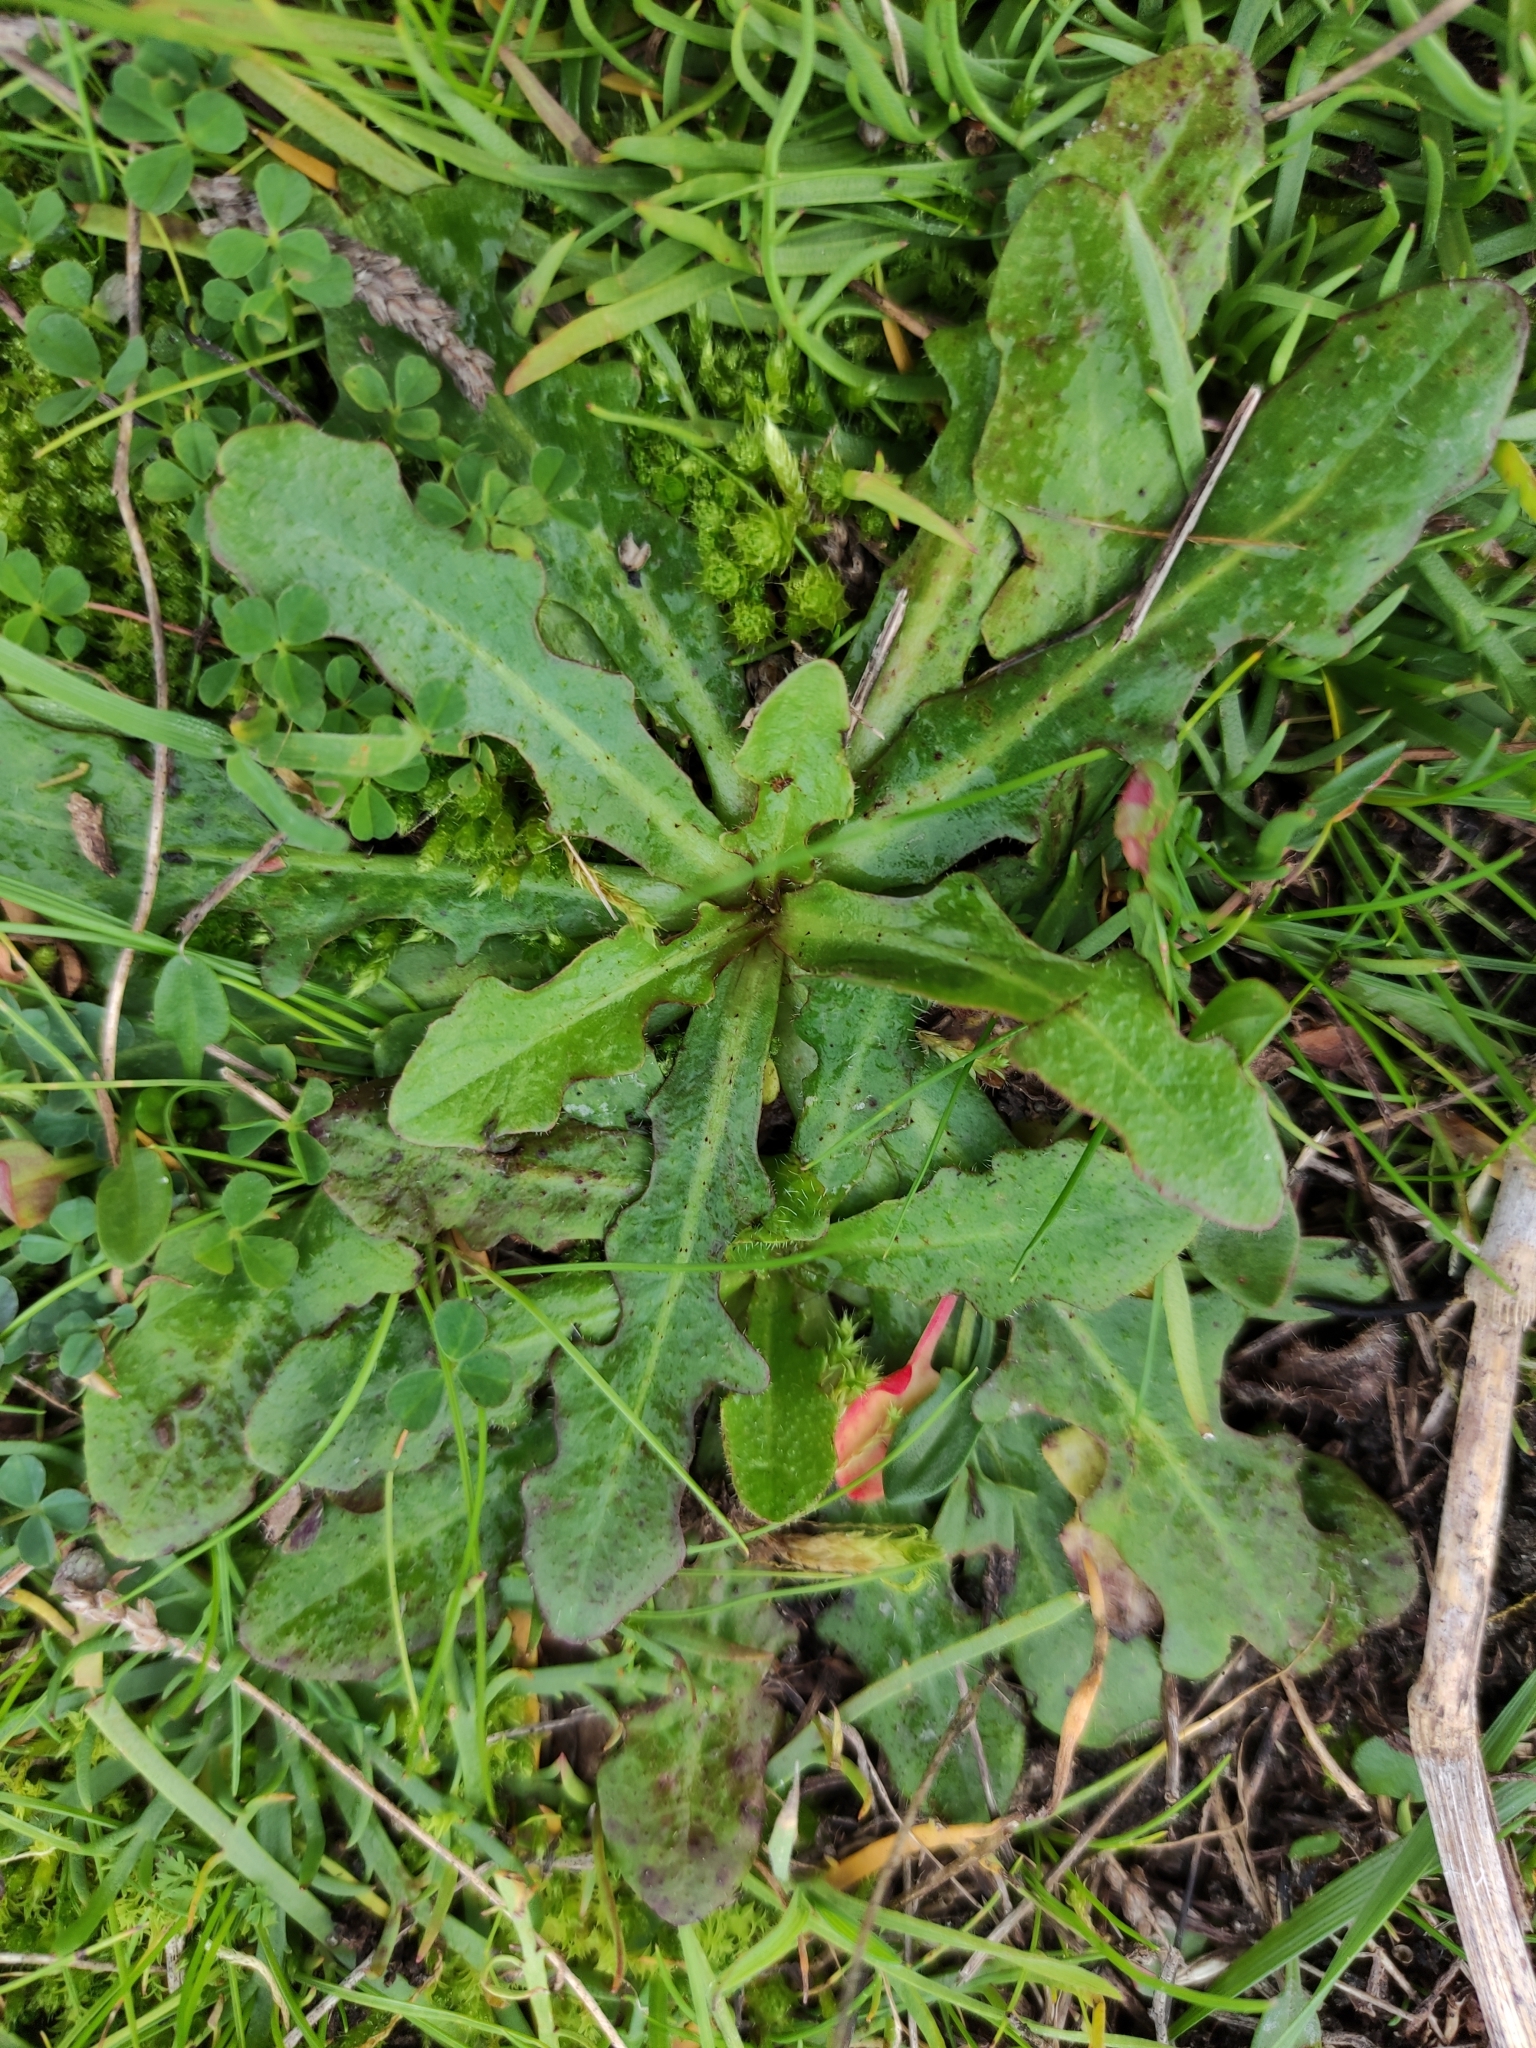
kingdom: Plantae
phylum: Tracheophyta
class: Magnoliopsida
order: Asterales
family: Asteraceae
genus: Hypochaeris
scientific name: Hypochaeris radicata
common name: Flatweed
